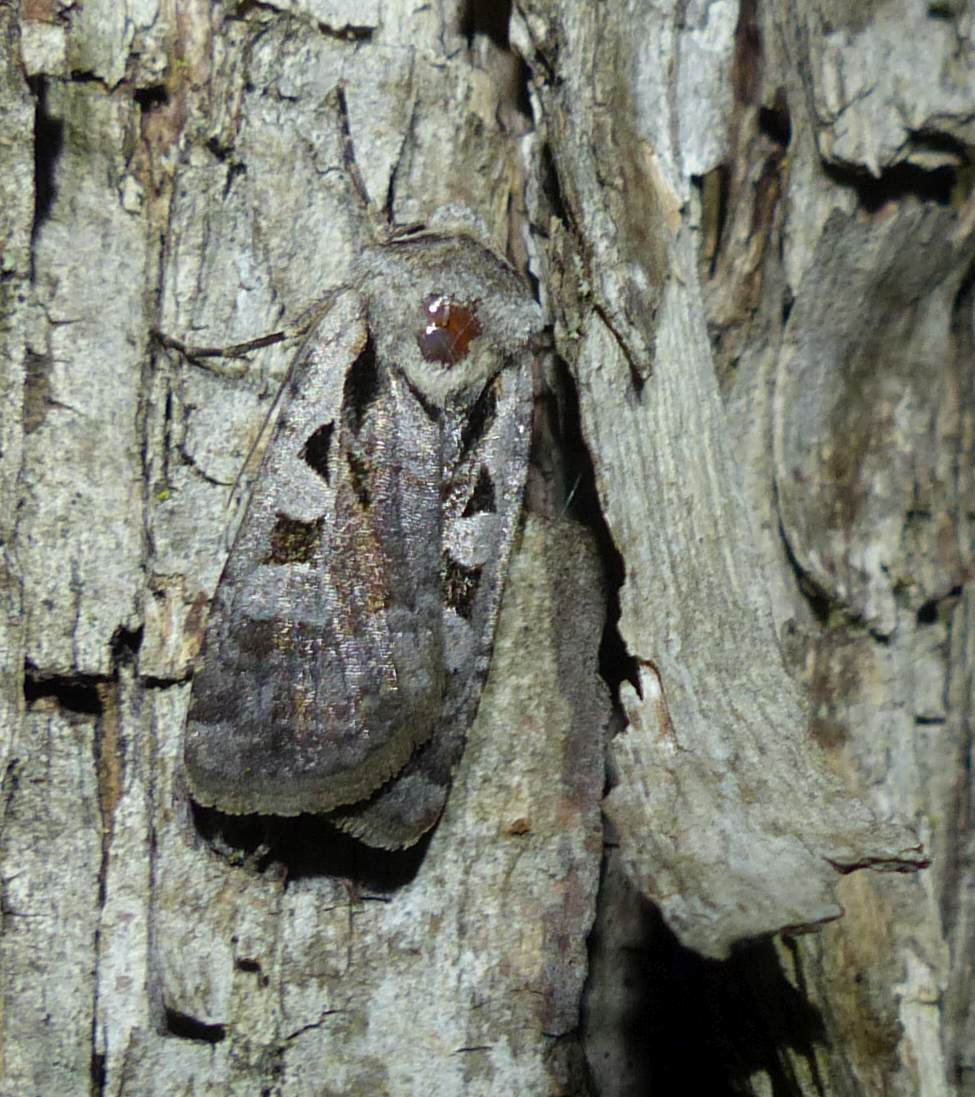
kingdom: Animalia
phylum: Arthropoda
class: Insecta
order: Lepidoptera
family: Noctuidae
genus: Euxoa
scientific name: Euxoa redimicula
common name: Fillet dart
